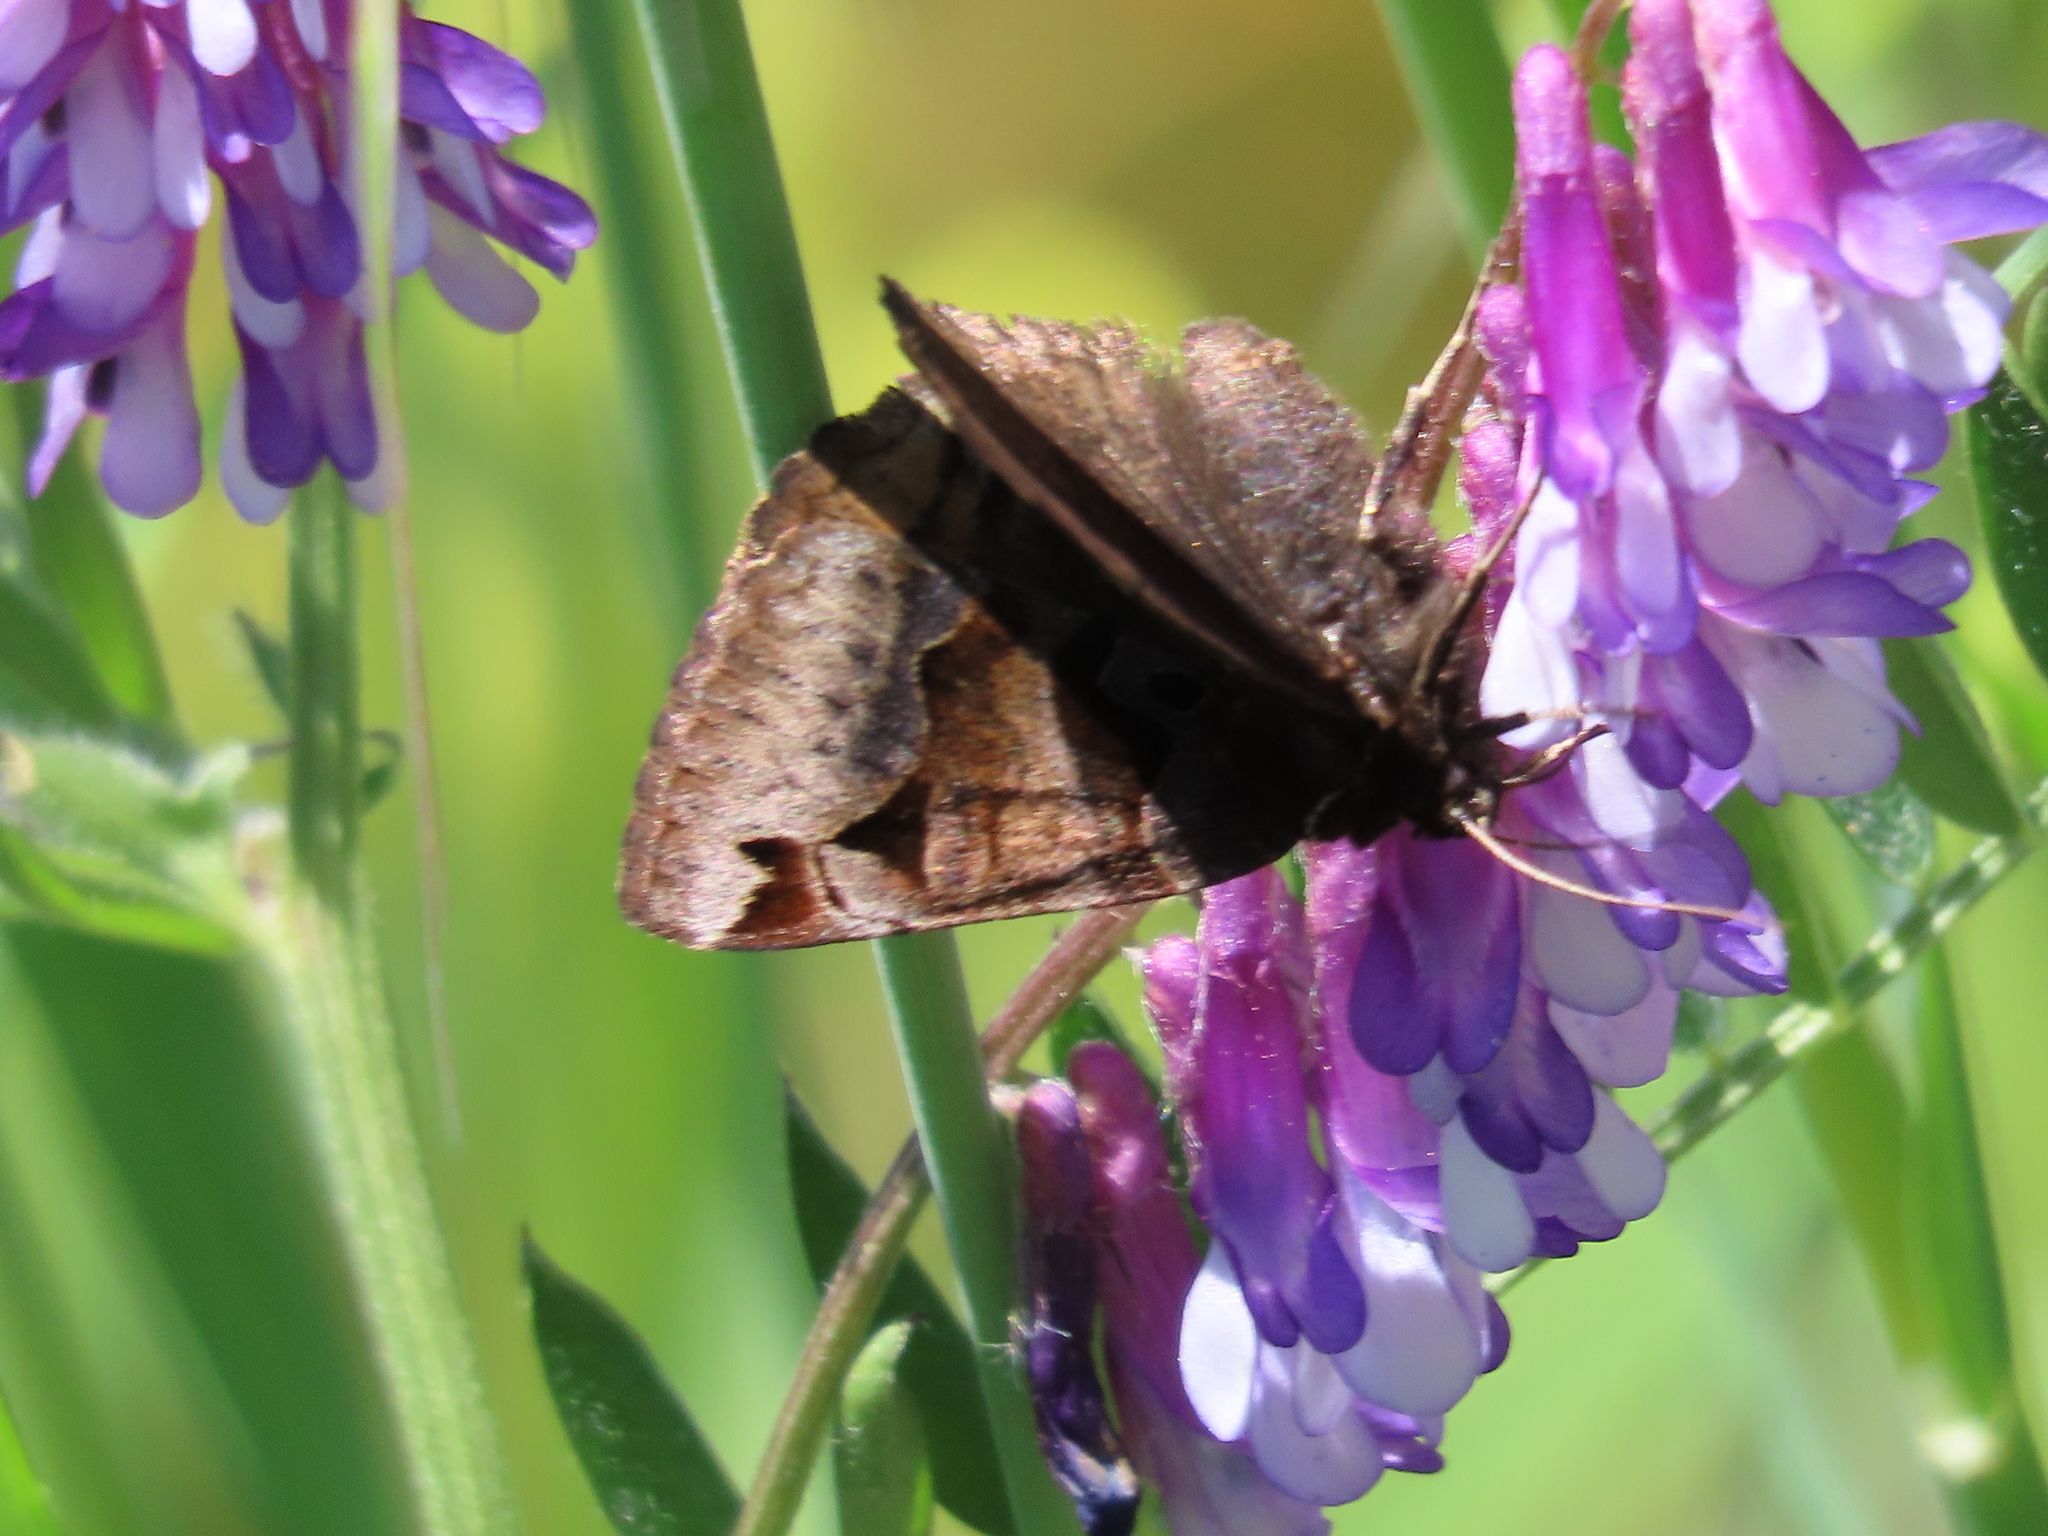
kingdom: Animalia
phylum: Arthropoda
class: Insecta
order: Lepidoptera
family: Erebidae
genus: Euclidia
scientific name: Euclidia ardita
